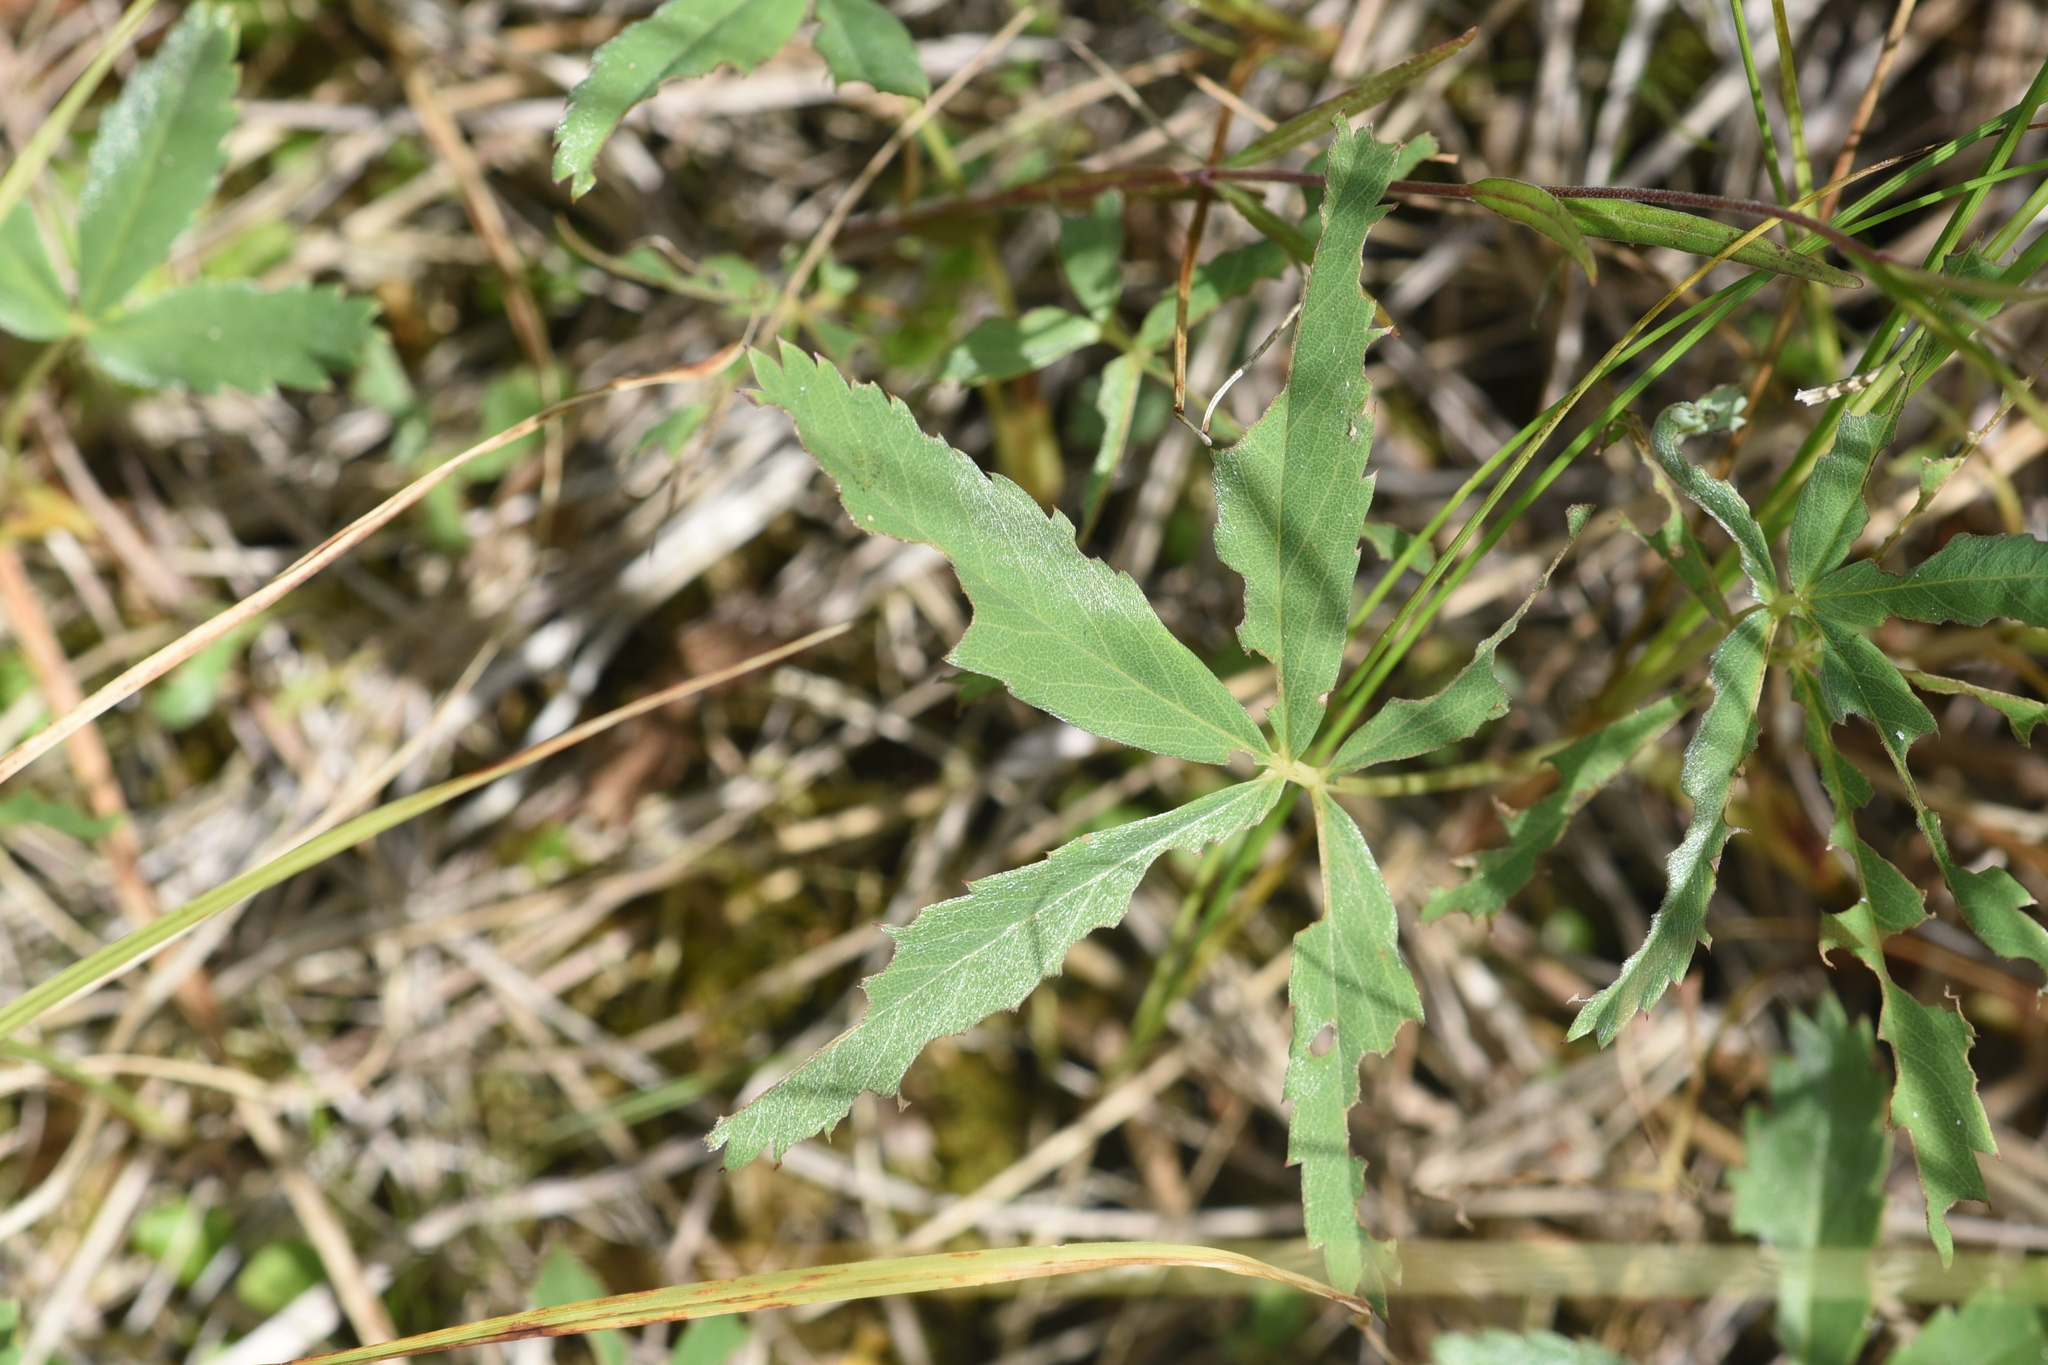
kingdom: Plantae
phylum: Tracheophyta
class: Magnoliopsida
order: Rosales
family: Rosaceae
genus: Comarum
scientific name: Comarum palustre
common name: Marsh cinquefoil
